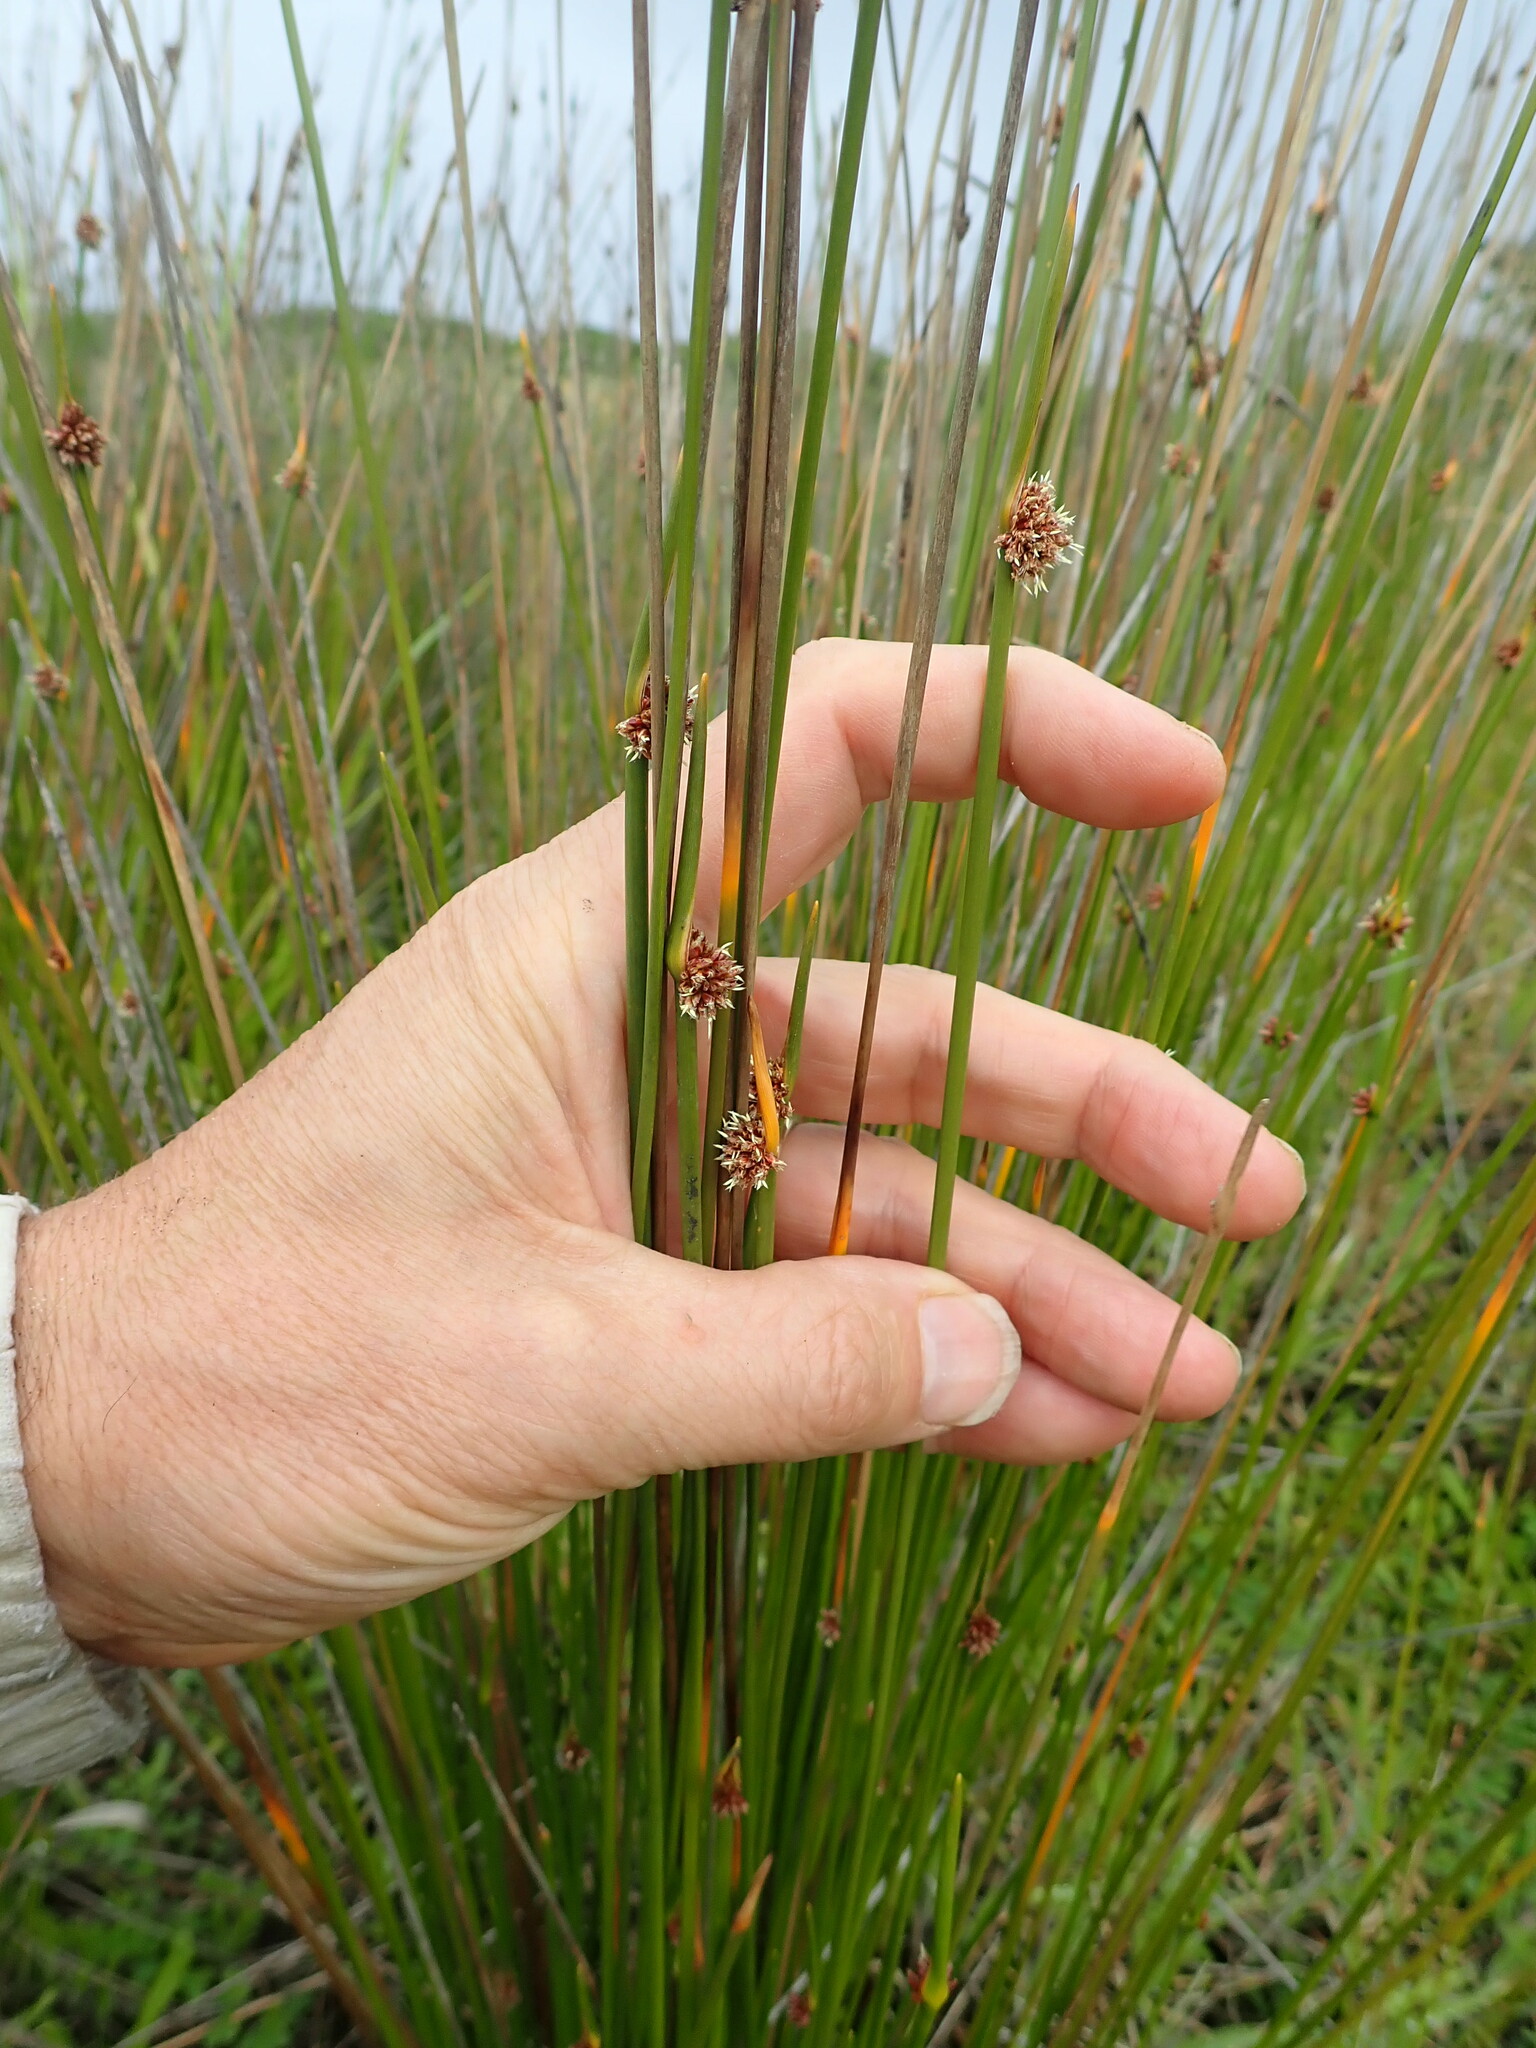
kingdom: Plantae
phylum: Tracheophyta
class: Liliopsida
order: Poales
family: Cyperaceae
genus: Ficinia
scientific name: Ficinia nodosa
